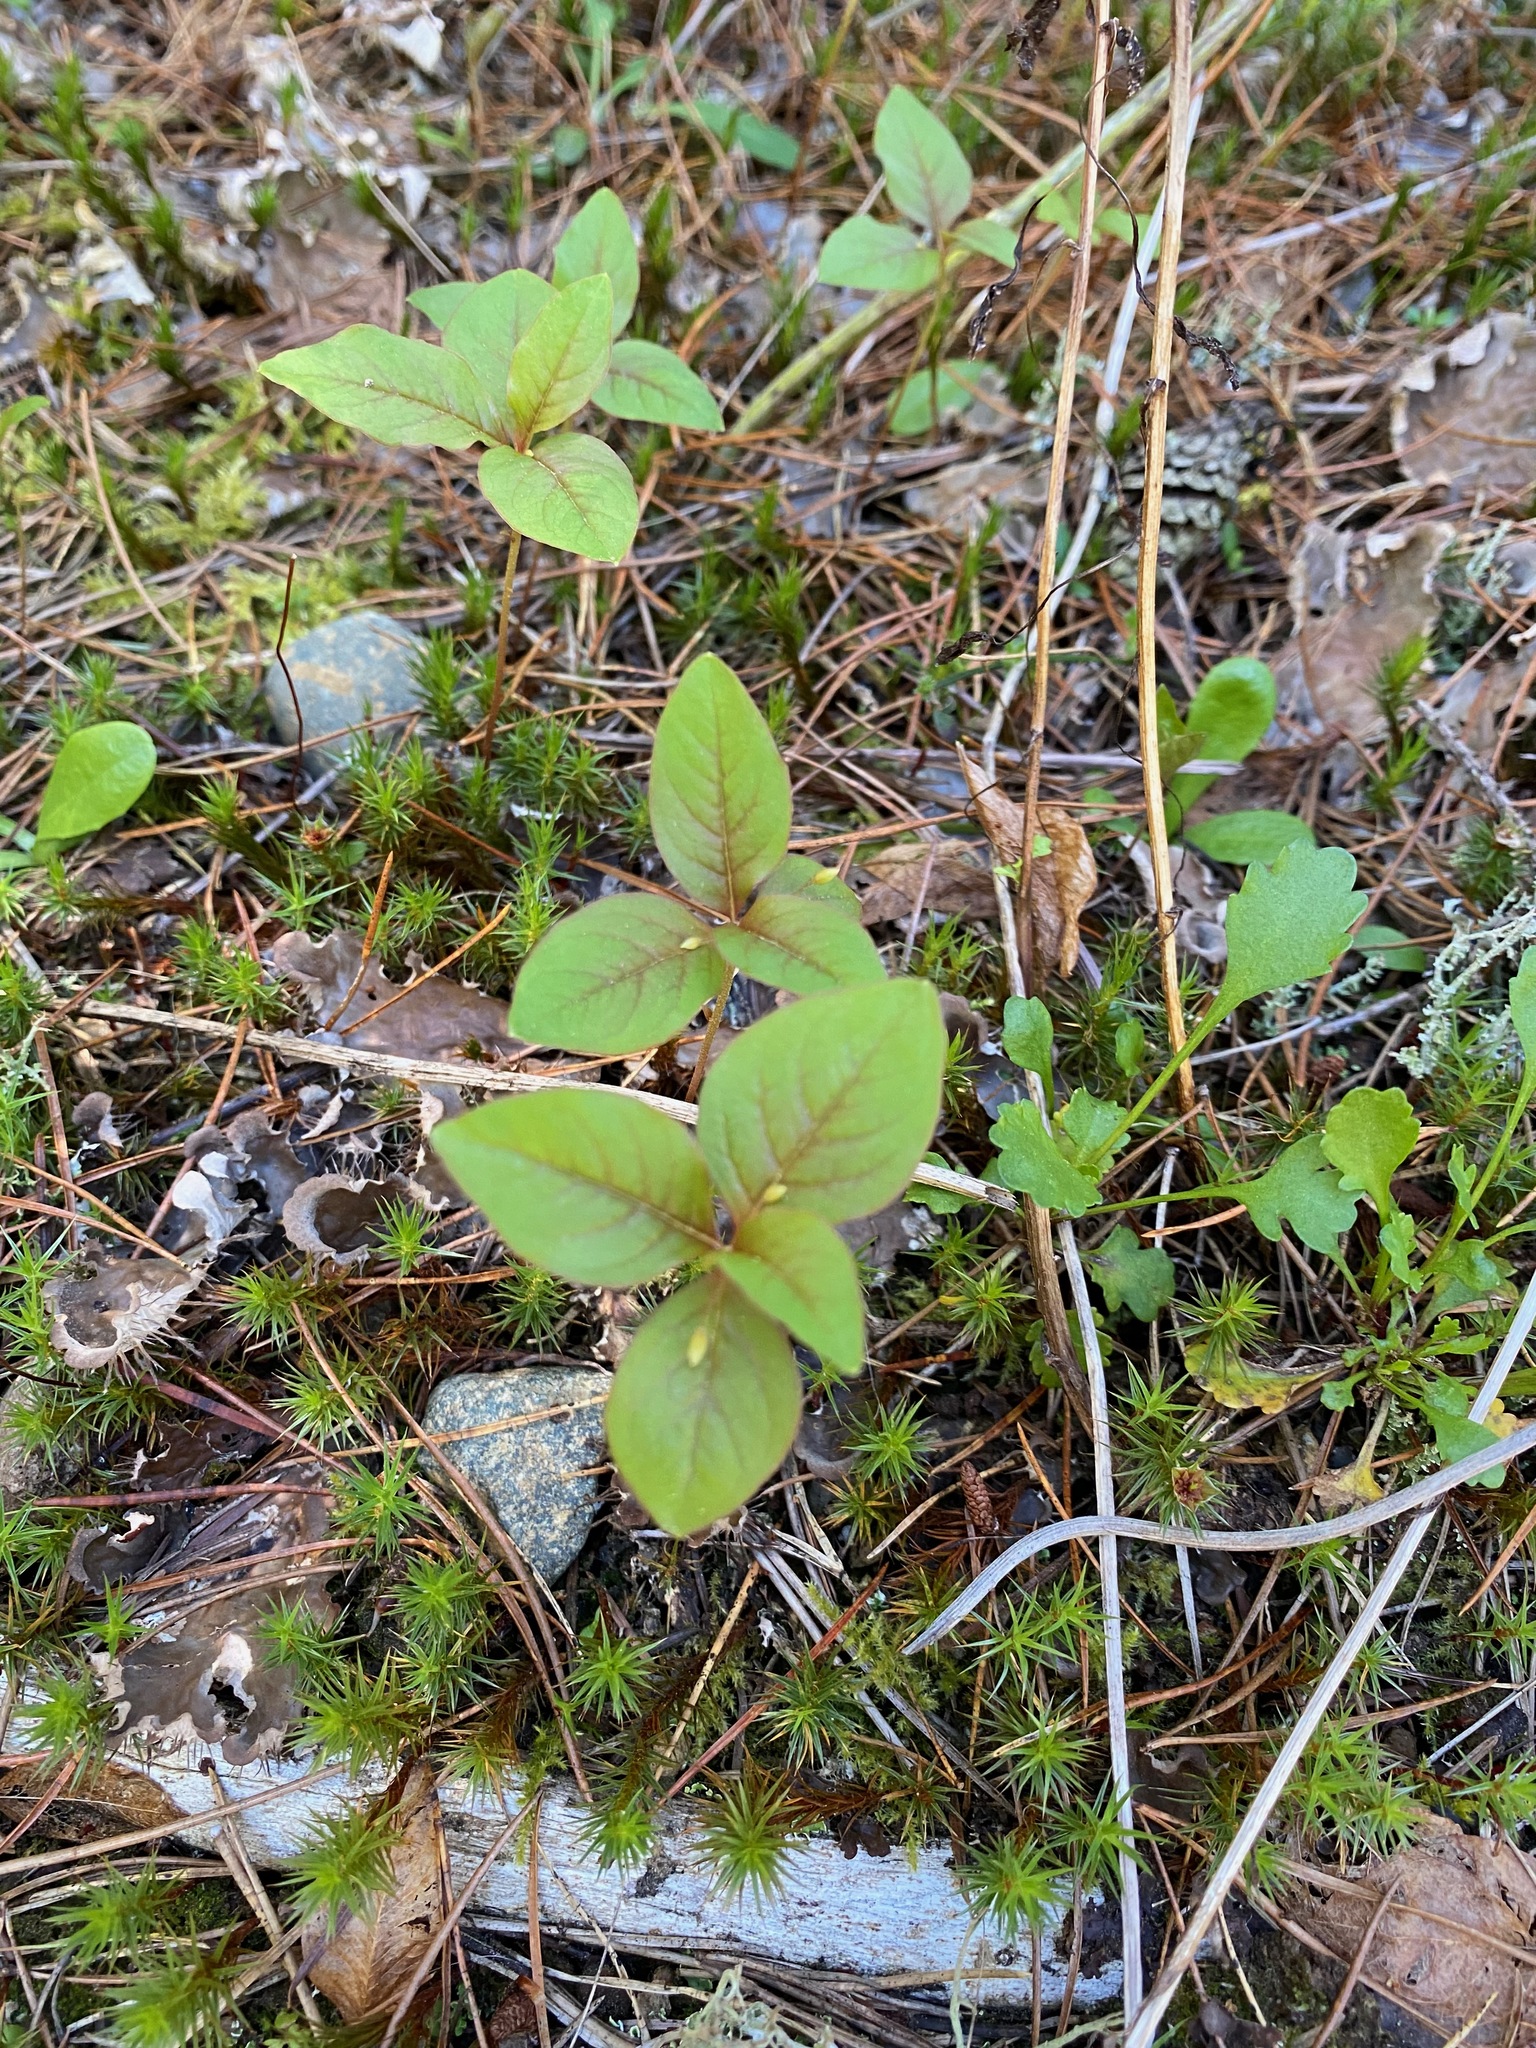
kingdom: Plantae
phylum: Tracheophyta
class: Magnoliopsida
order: Ericales
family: Primulaceae
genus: Lysimachia
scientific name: Lysimachia latifolia
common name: Pacific starflower
